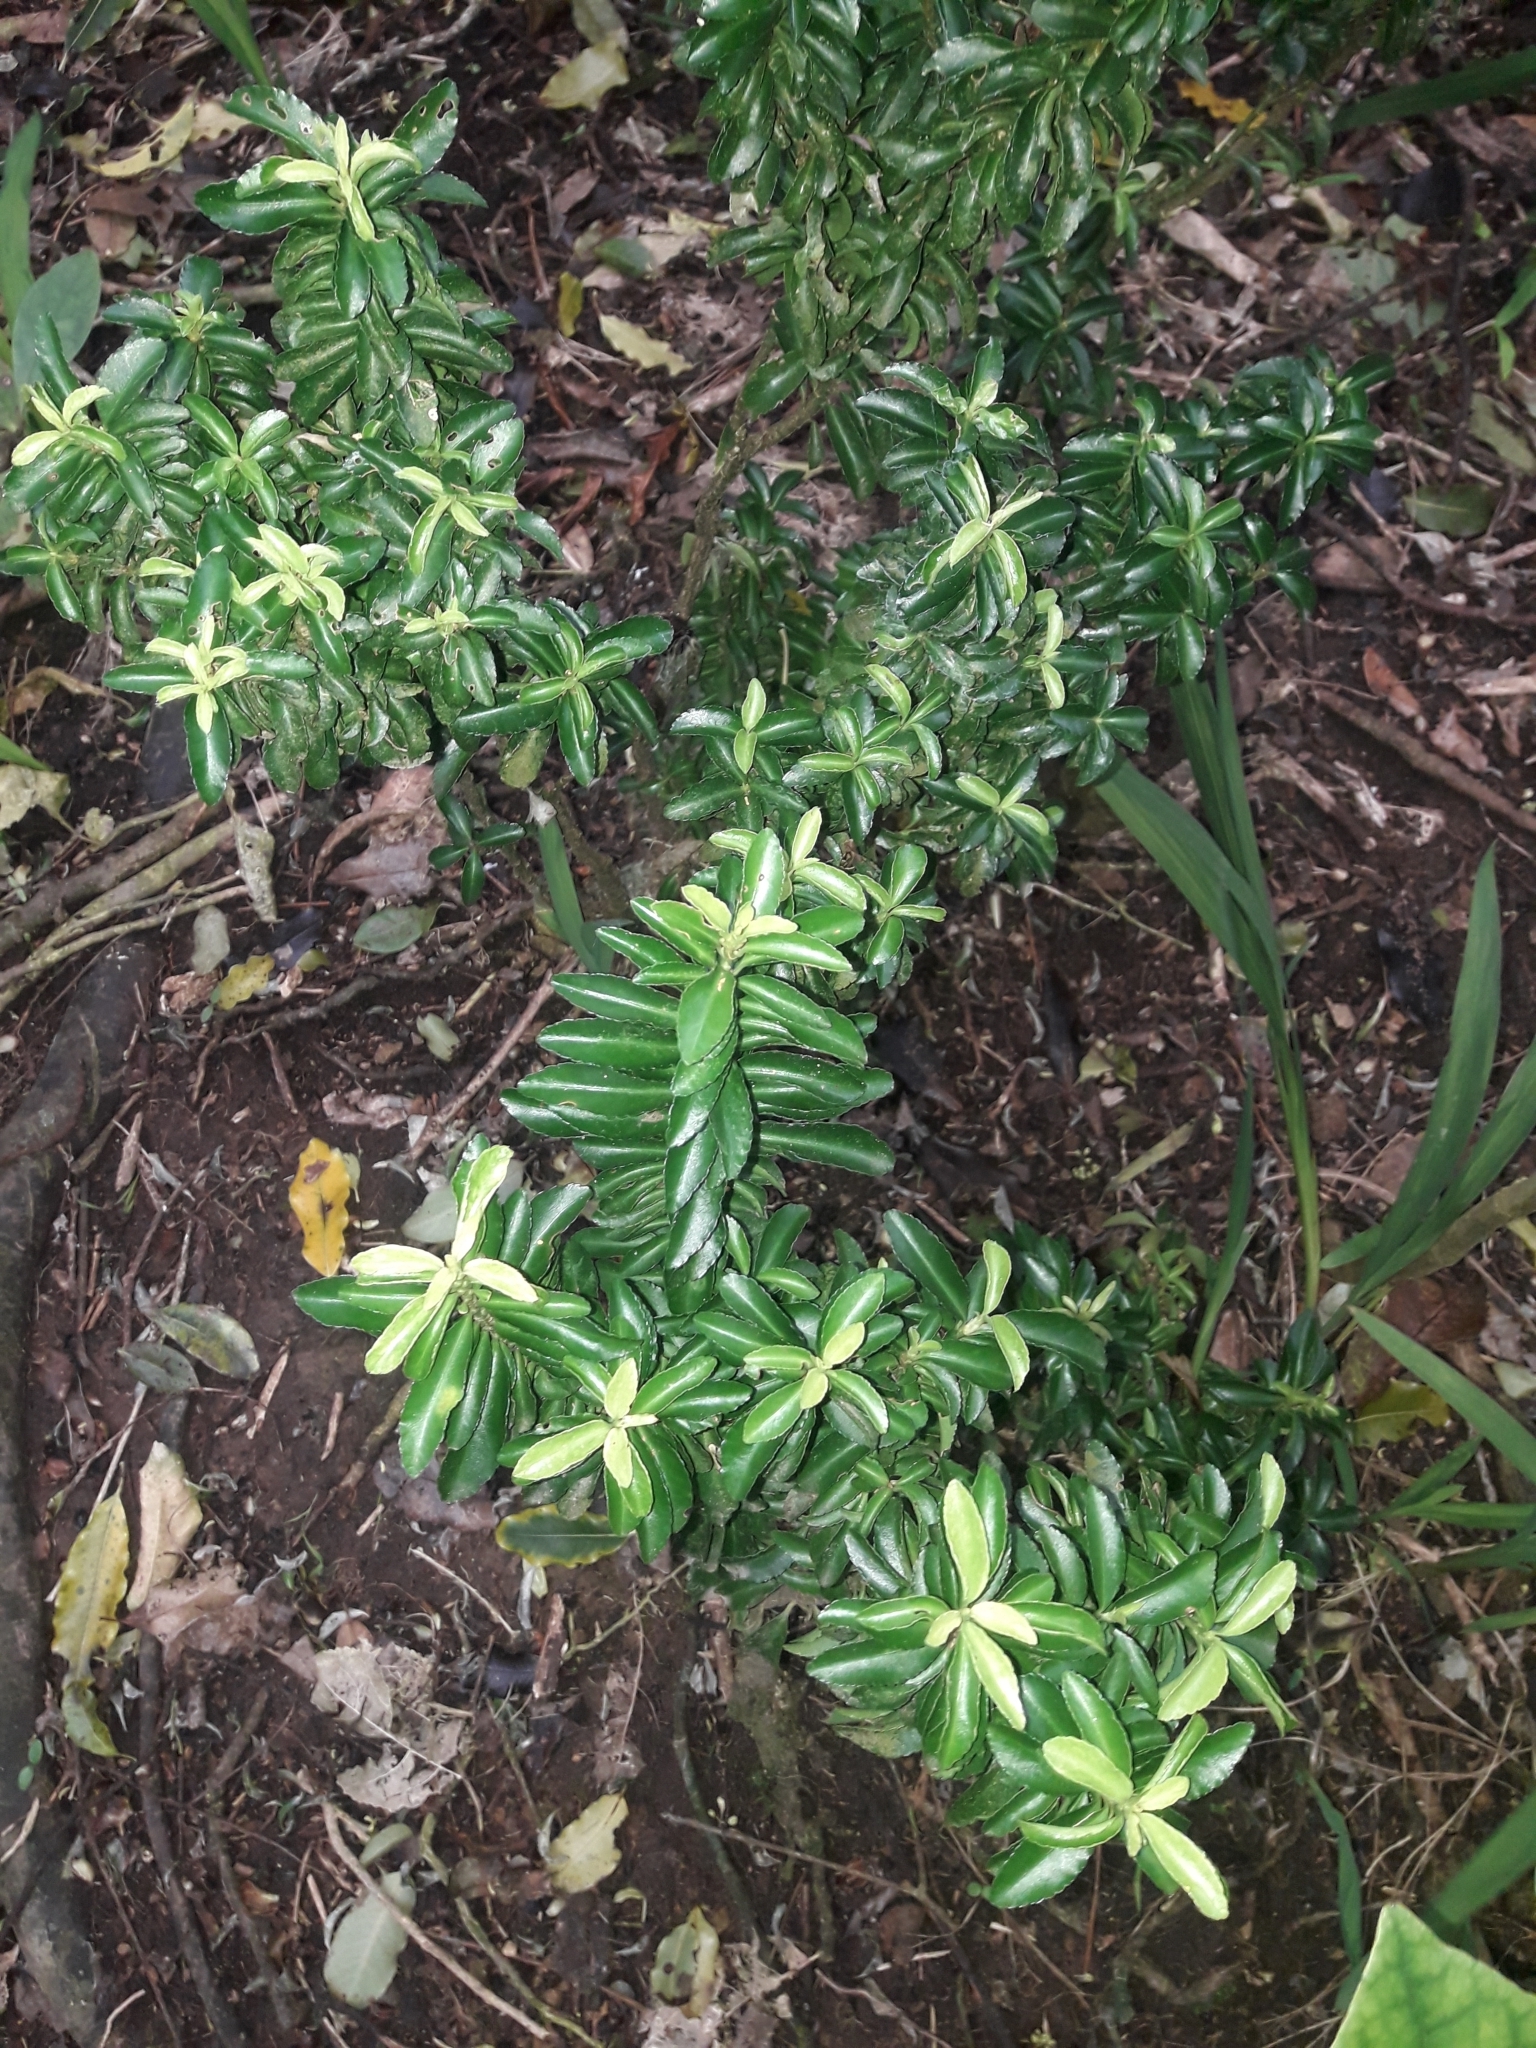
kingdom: Plantae
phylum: Tracheophyta
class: Magnoliopsida
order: Celastrales
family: Celastraceae
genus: Euonymus
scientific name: Euonymus japonicus
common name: Japanese spindletree
